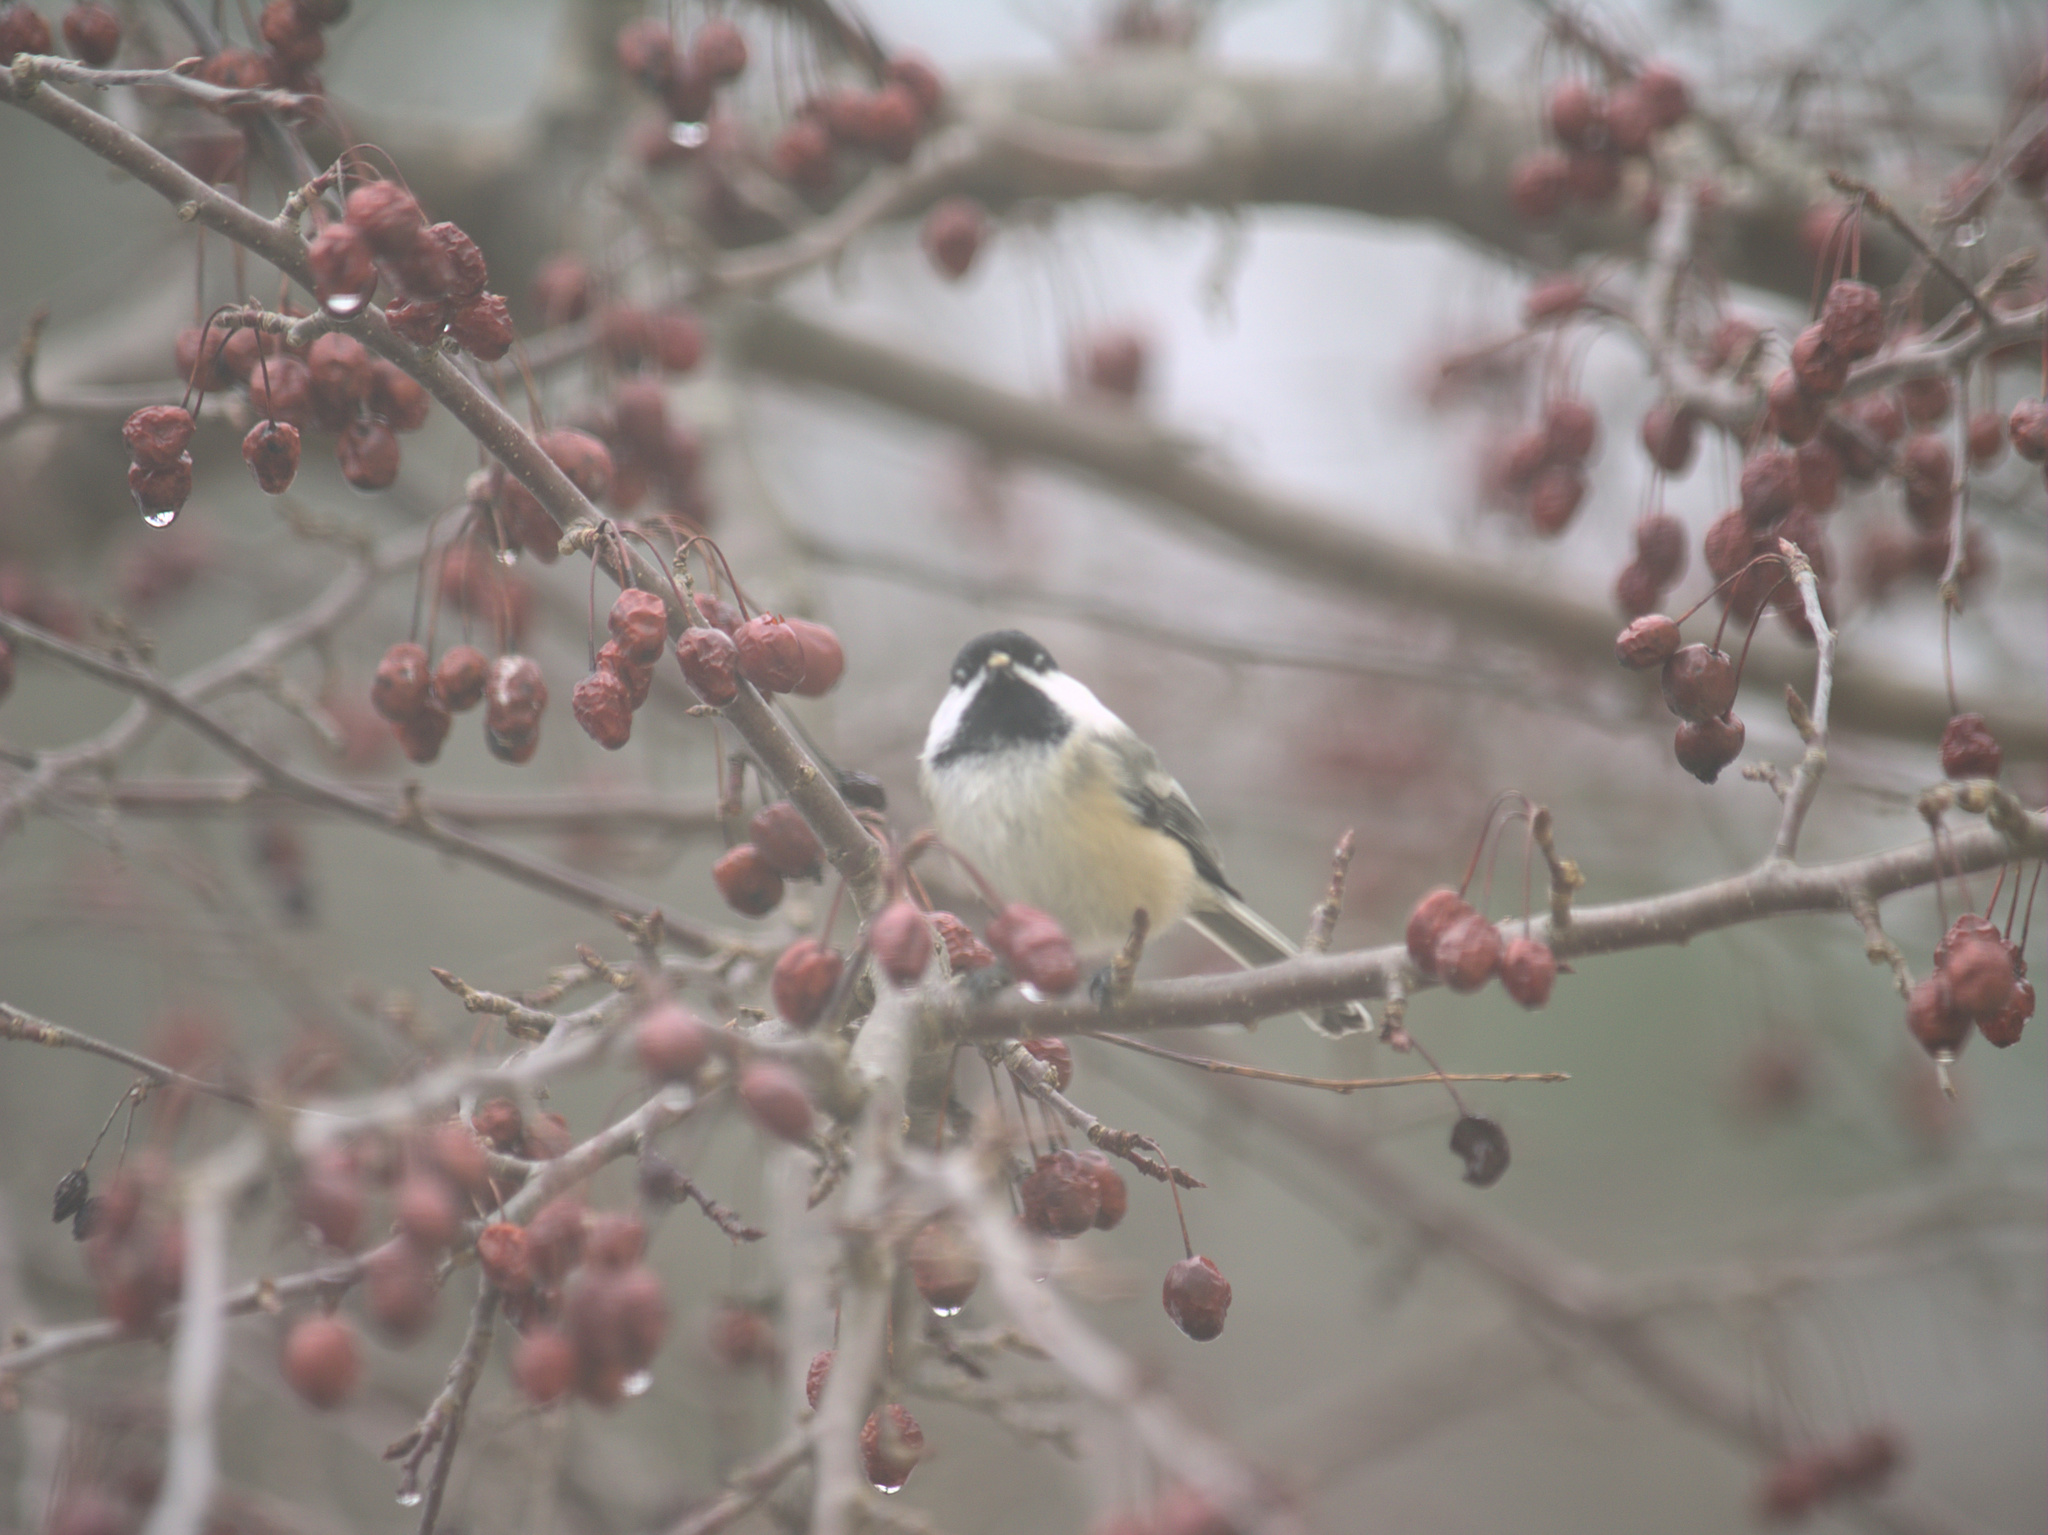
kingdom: Animalia
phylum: Chordata
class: Aves
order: Passeriformes
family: Paridae
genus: Poecile
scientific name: Poecile atricapillus
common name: Black-capped chickadee
